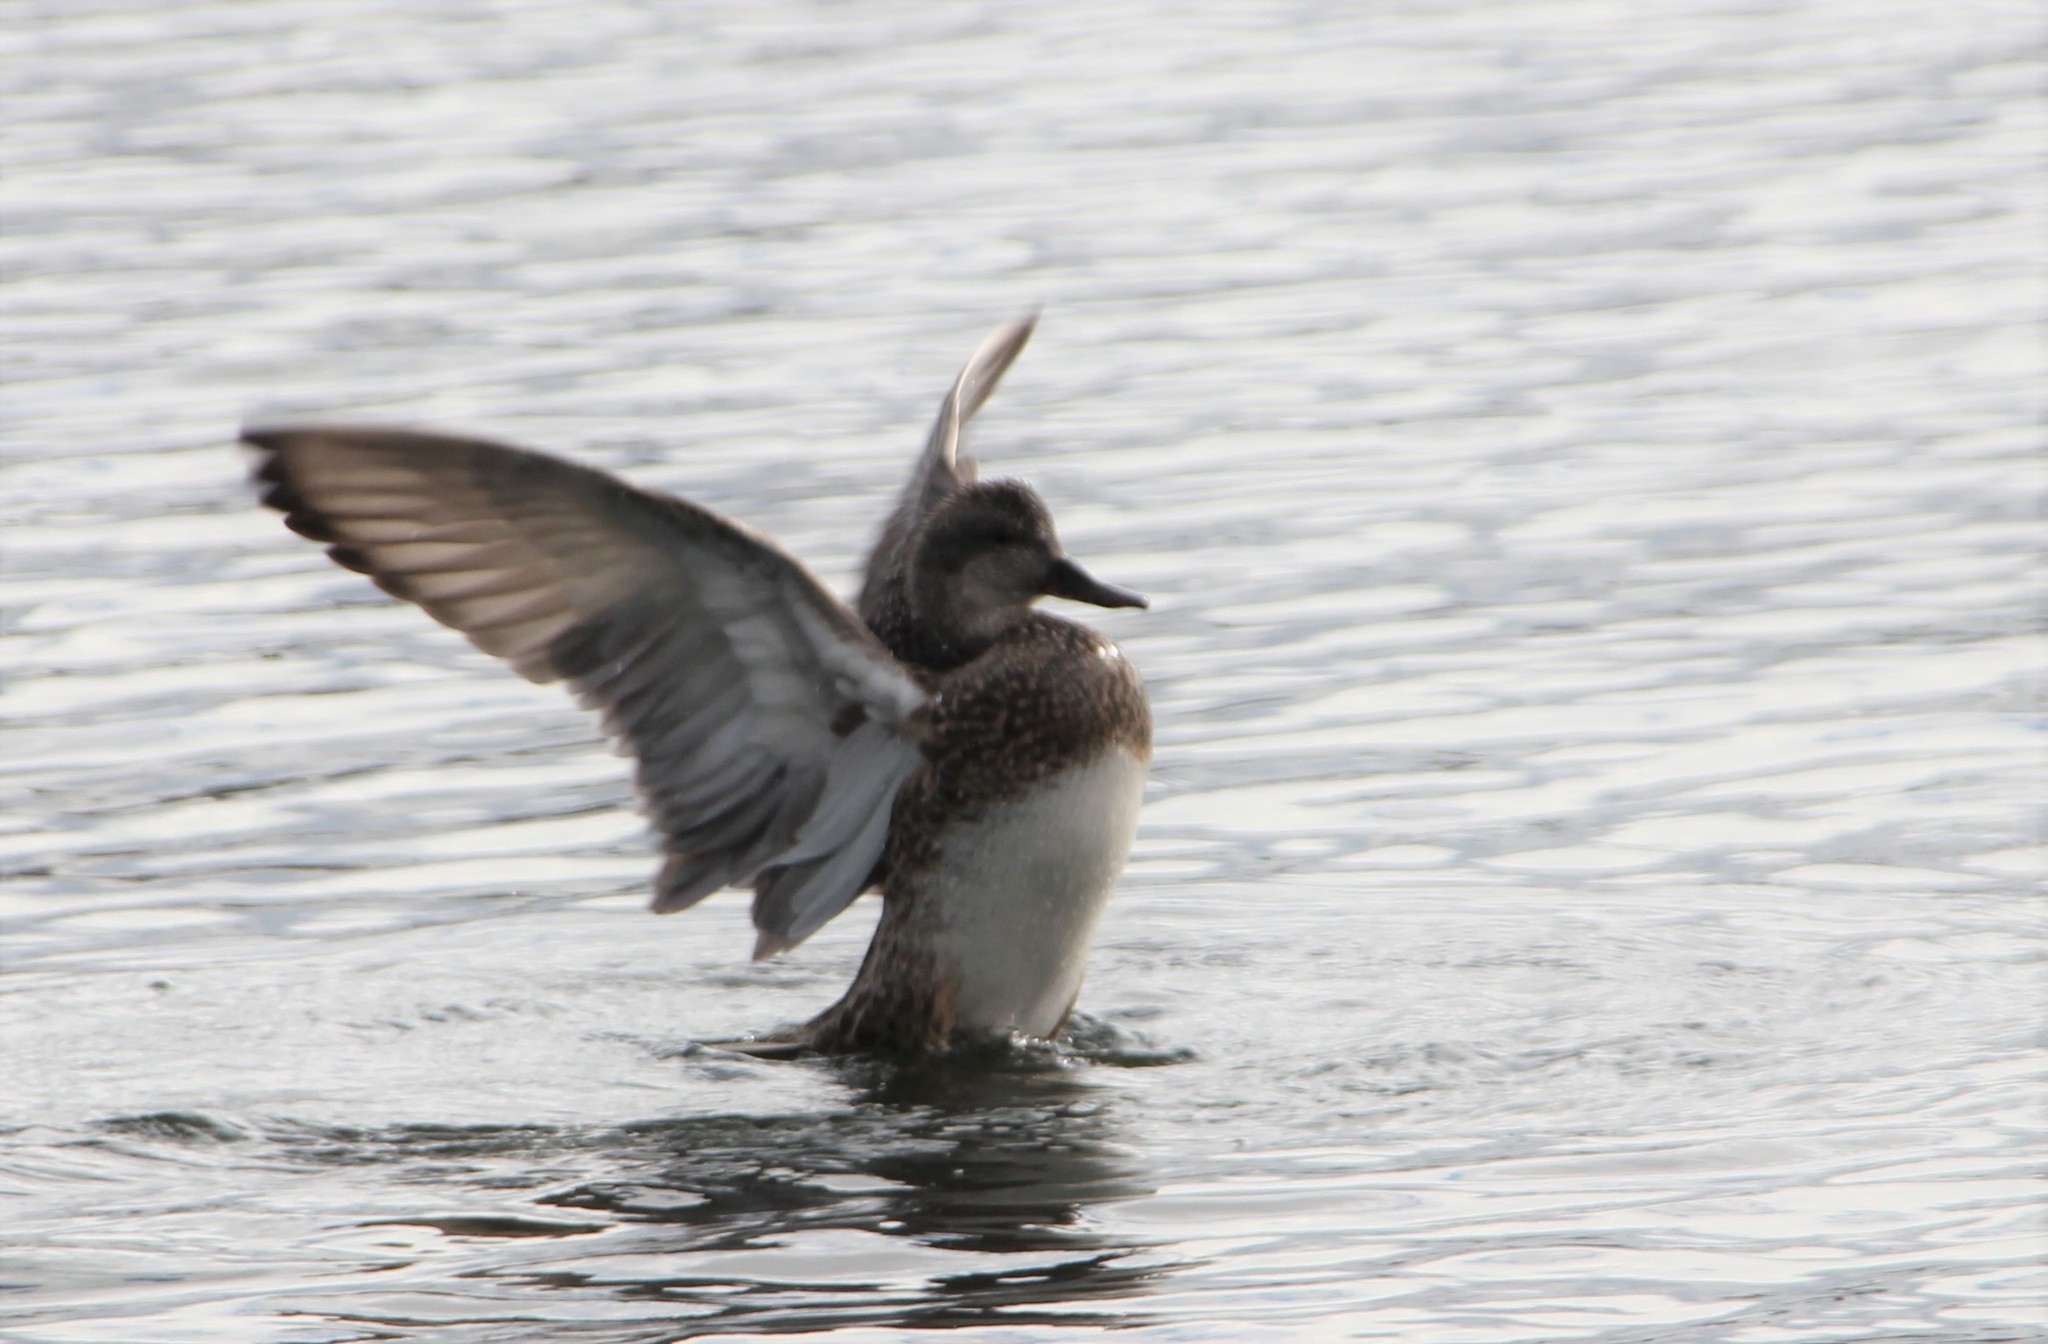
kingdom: Animalia
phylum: Chordata
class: Aves
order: Anseriformes
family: Anatidae
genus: Mareca
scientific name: Mareca strepera
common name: Gadwall
